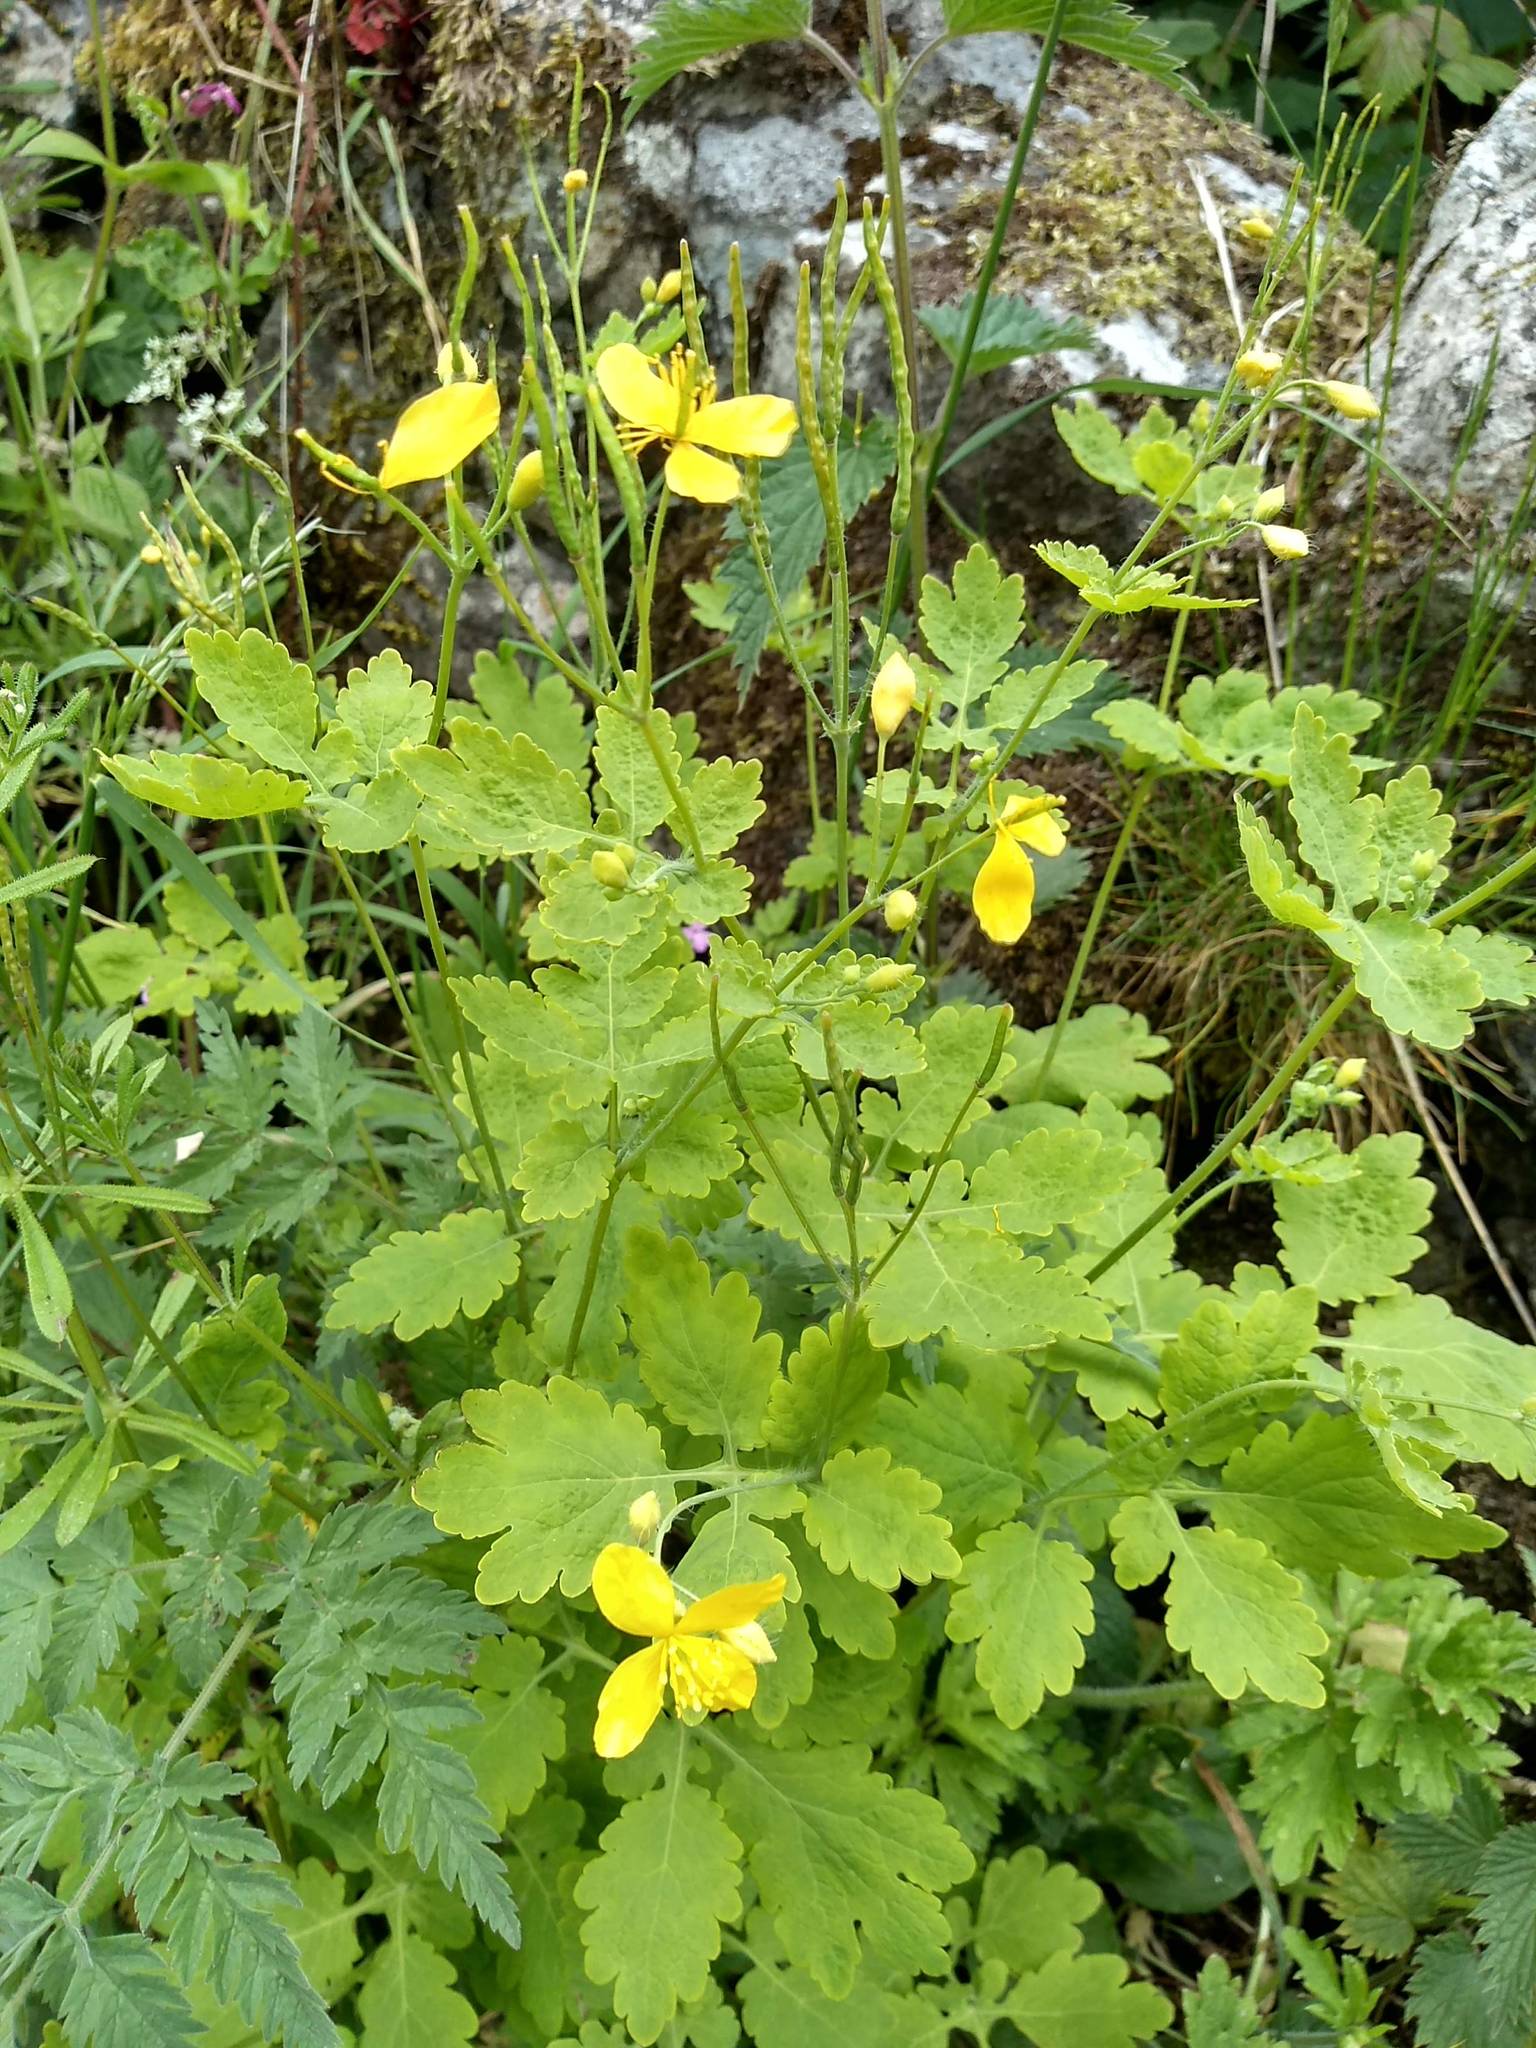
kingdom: Plantae
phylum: Tracheophyta
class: Magnoliopsida
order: Ranunculales
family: Papaveraceae
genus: Chelidonium
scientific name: Chelidonium majus
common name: Greater celandine
